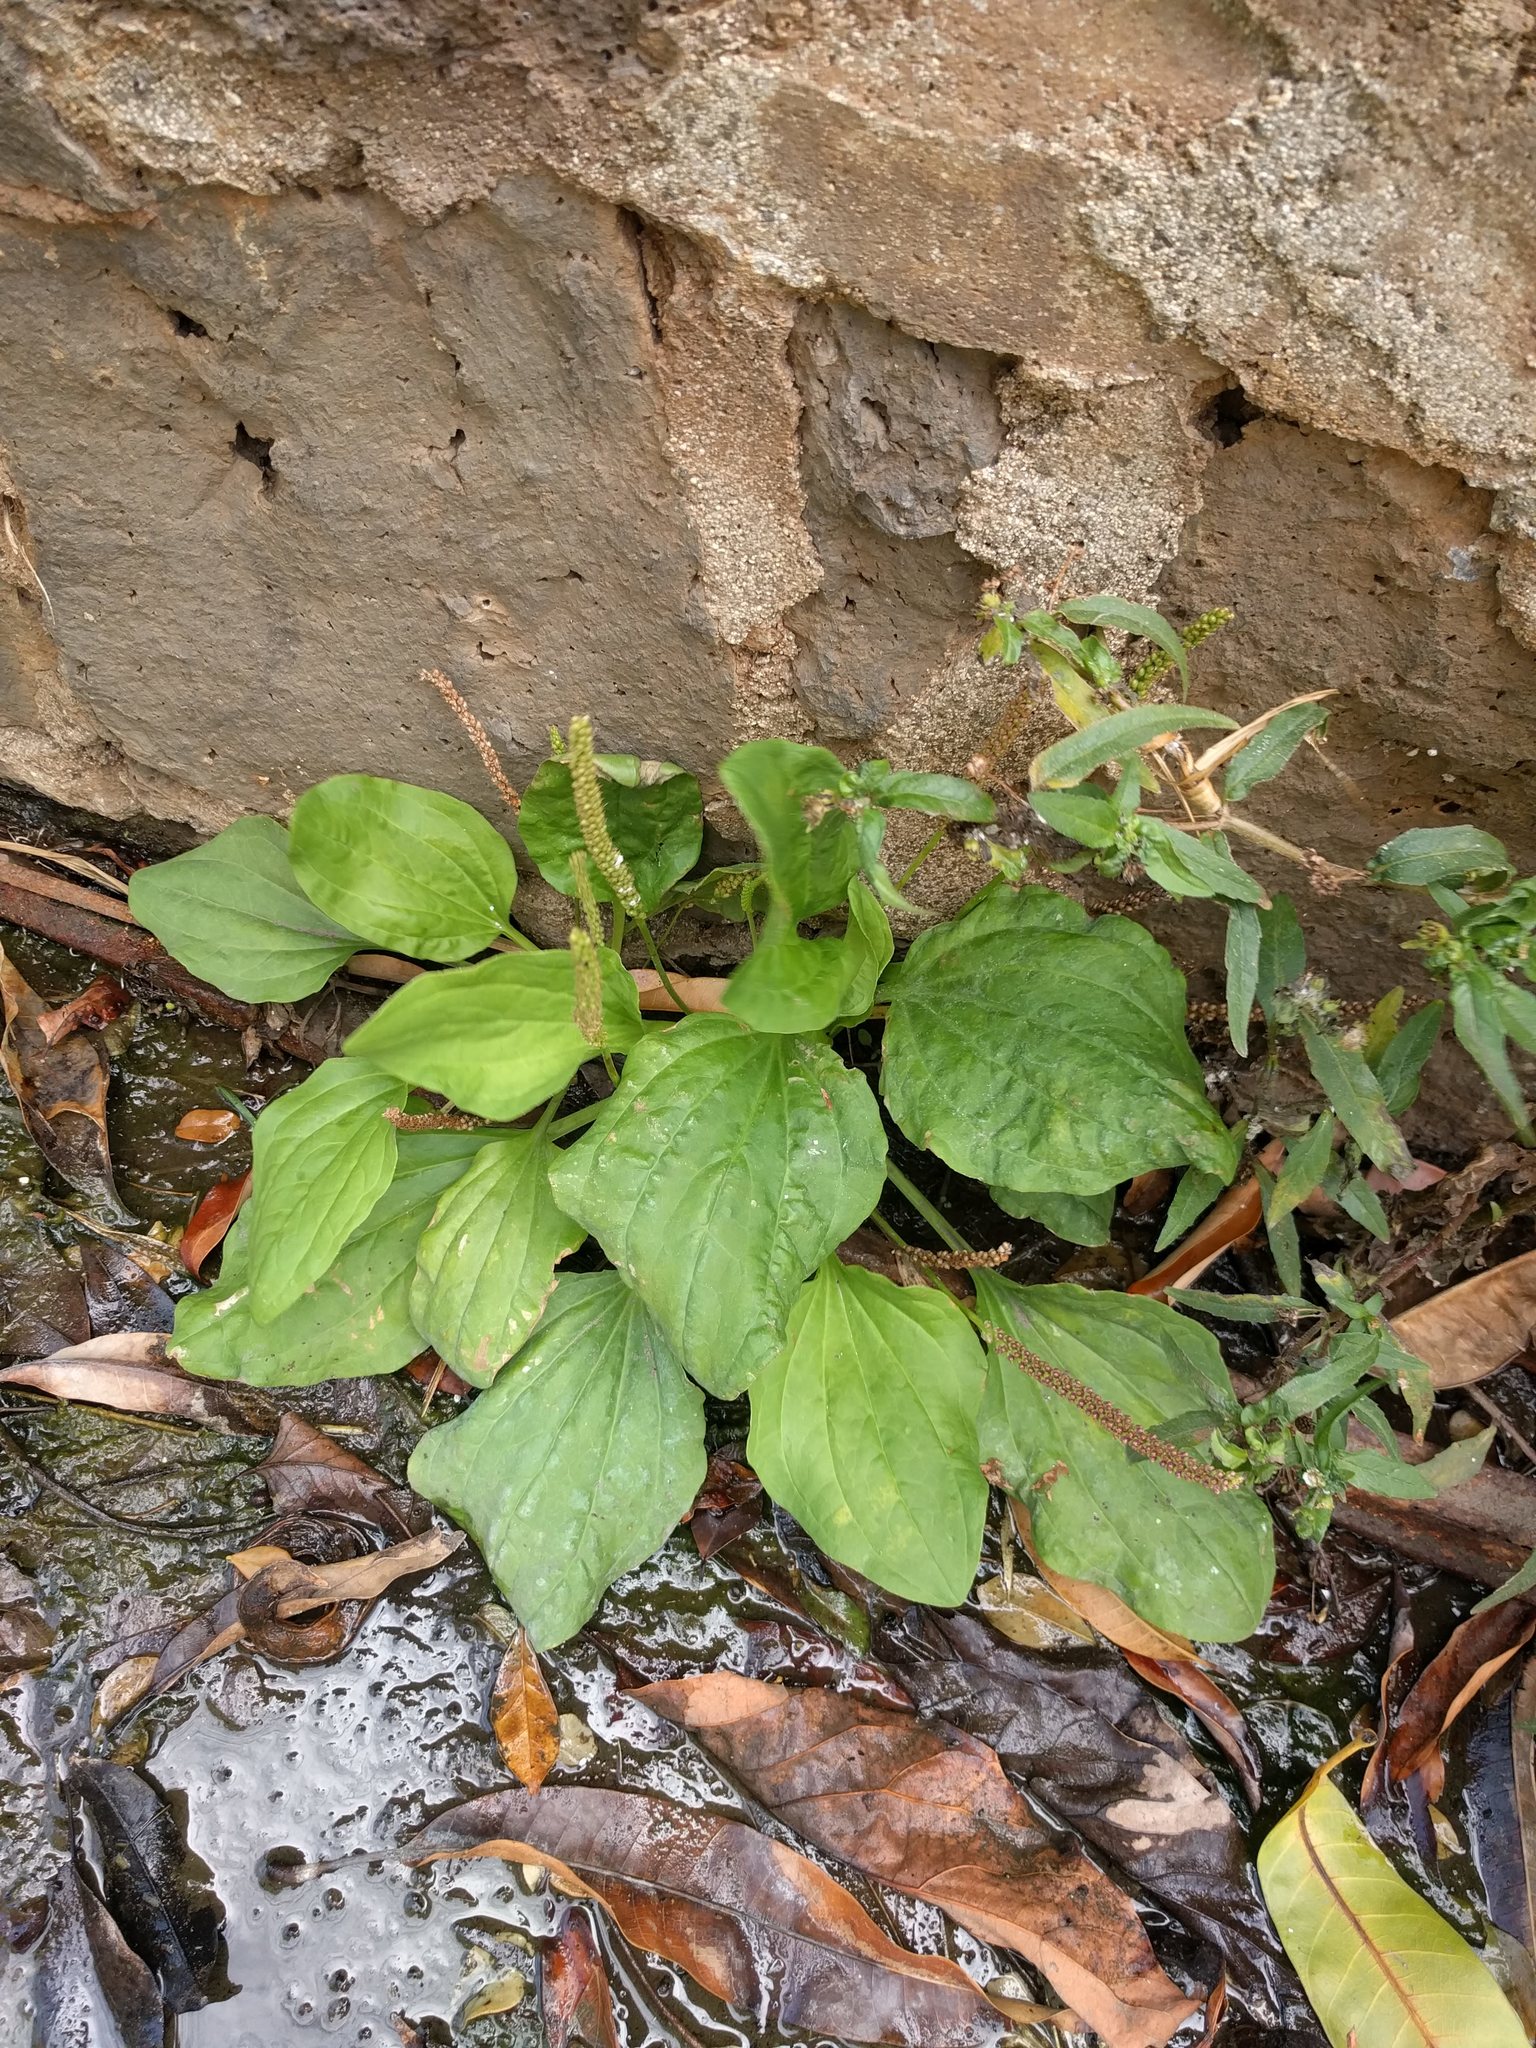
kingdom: Plantae
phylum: Tracheophyta
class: Magnoliopsida
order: Lamiales
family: Plantaginaceae
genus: Plantago
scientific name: Plantago major
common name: Common plantain
